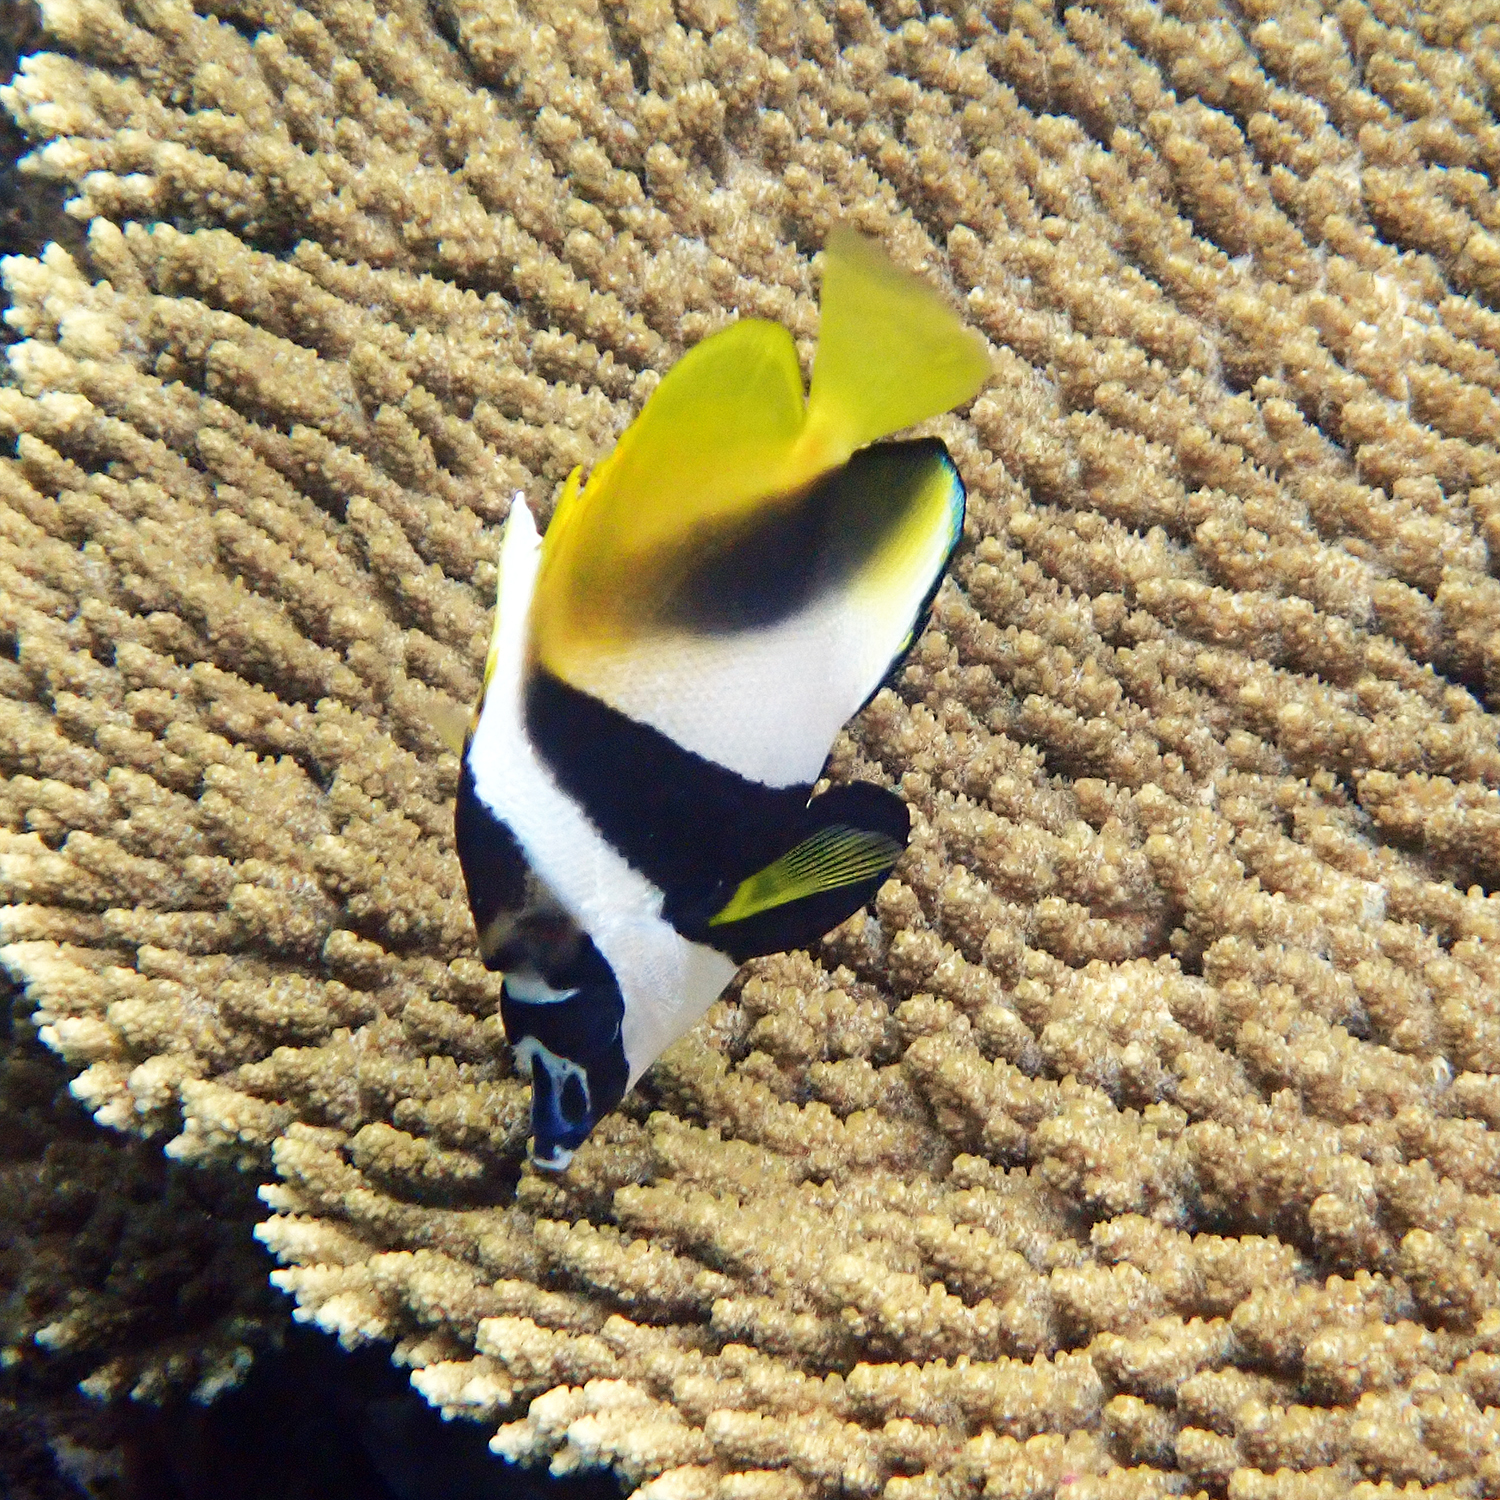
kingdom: Animalia
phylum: Chordata
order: Perciformes
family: Chaetodontidae
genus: Heniochus
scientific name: Heniochus monoceros
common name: Masked bannerfish
